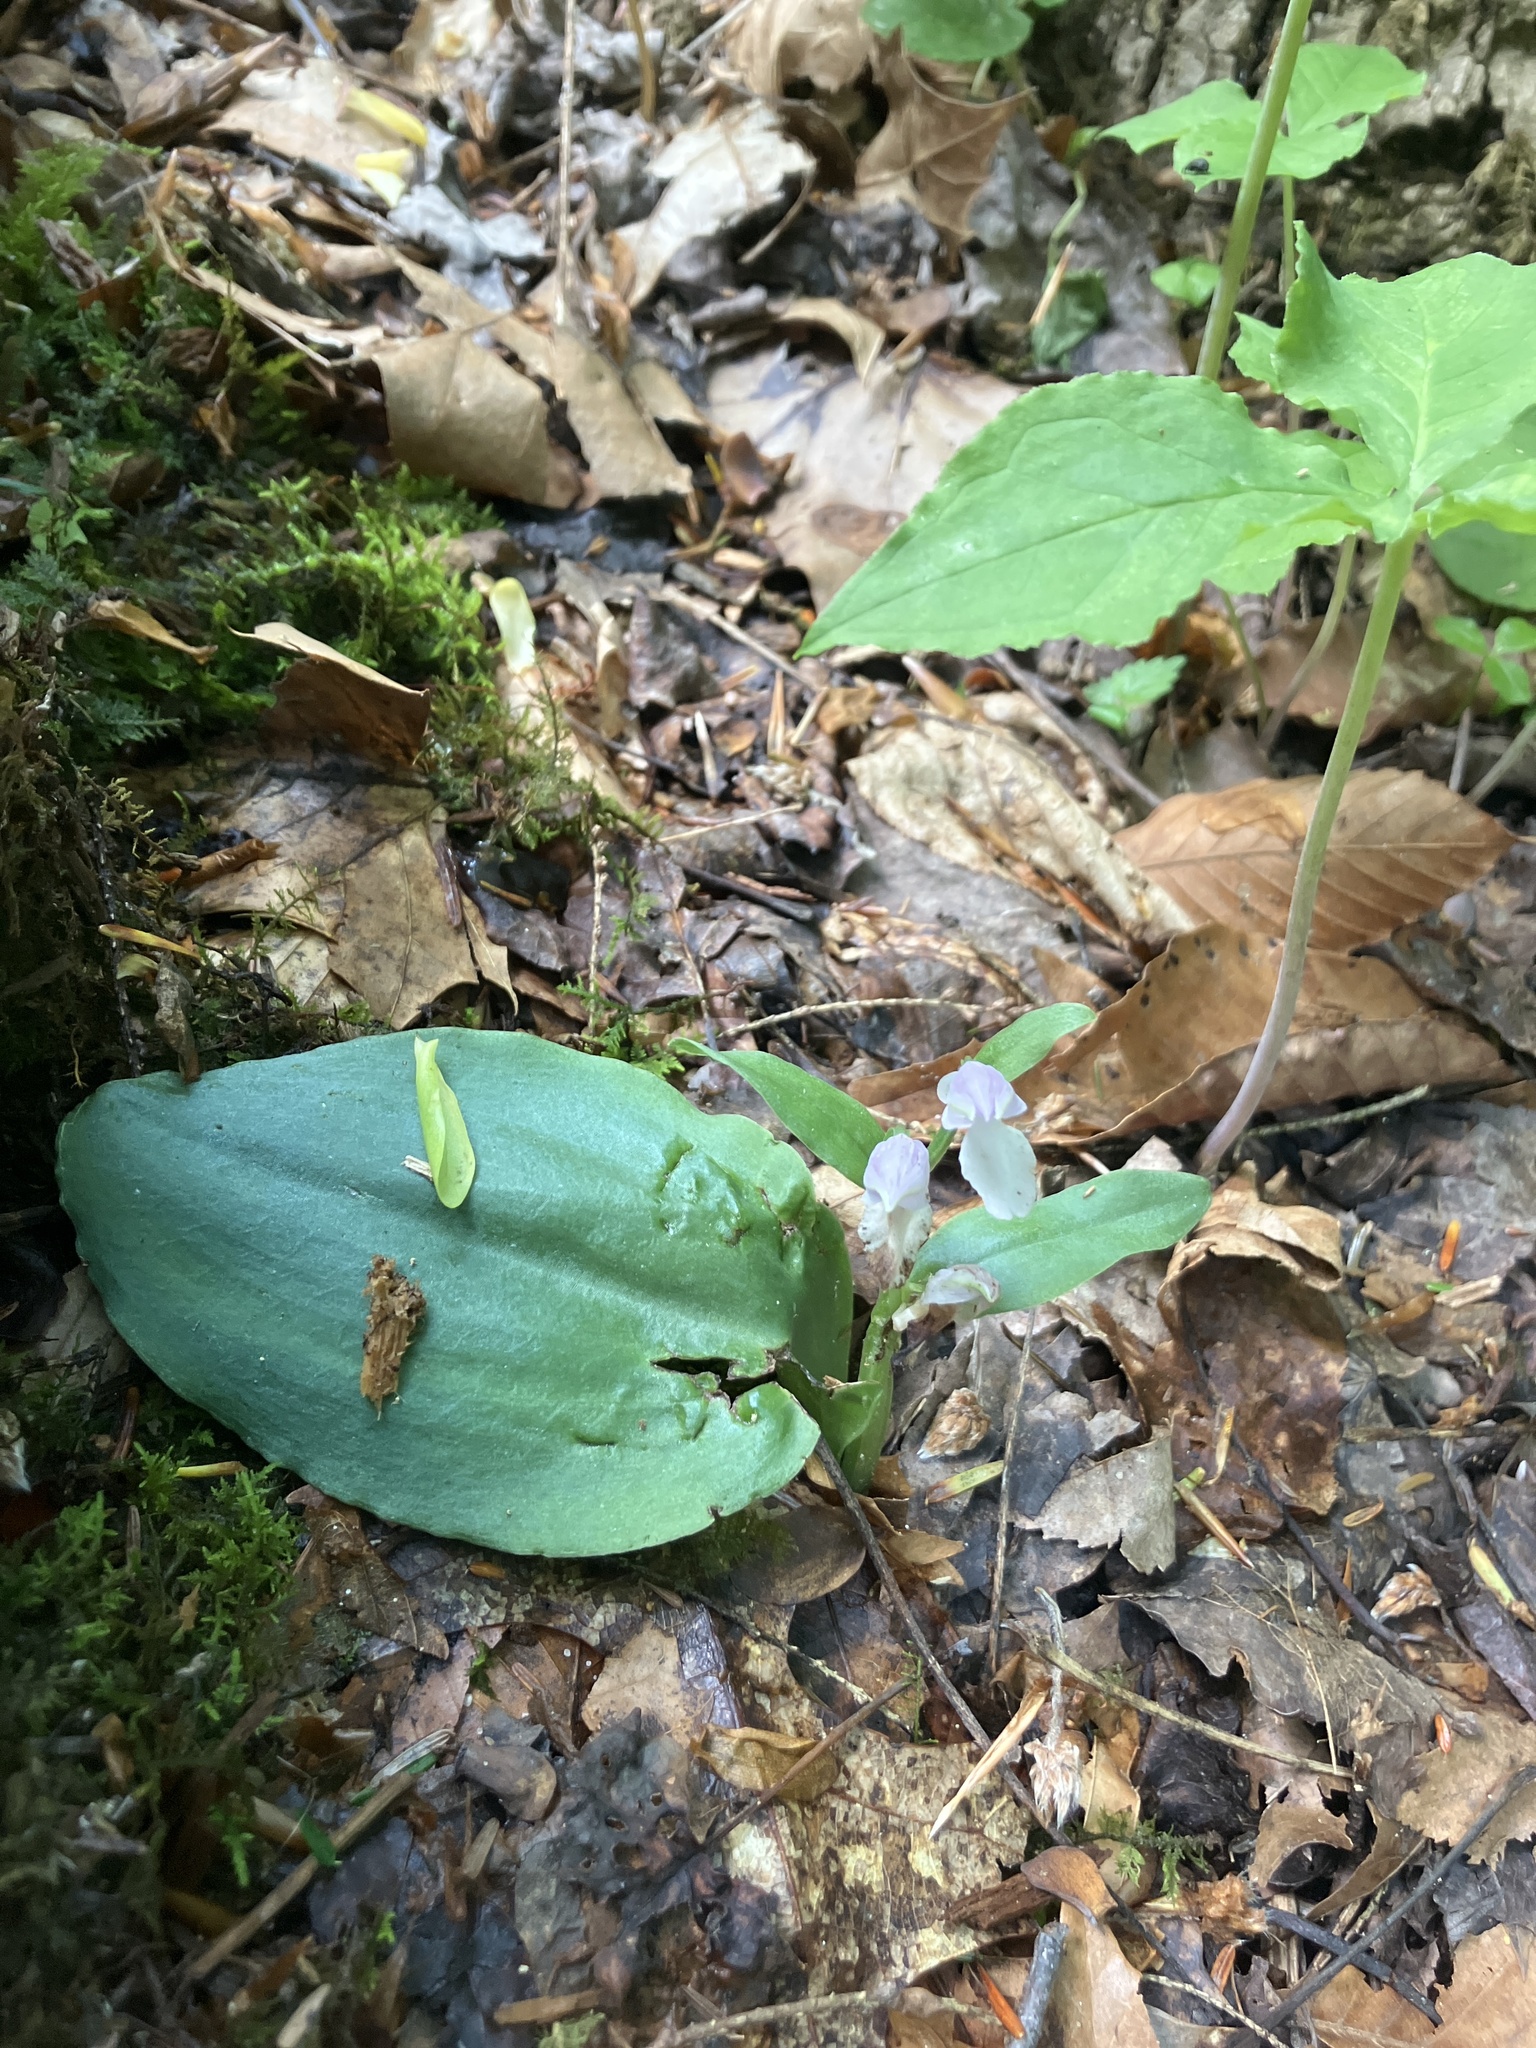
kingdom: Plantae
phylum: Tracheophyta
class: Liliopsida
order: Asparagales
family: Orchidaceae
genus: Galearis
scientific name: Galearis spectabilis
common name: Purple-hooded orchis
